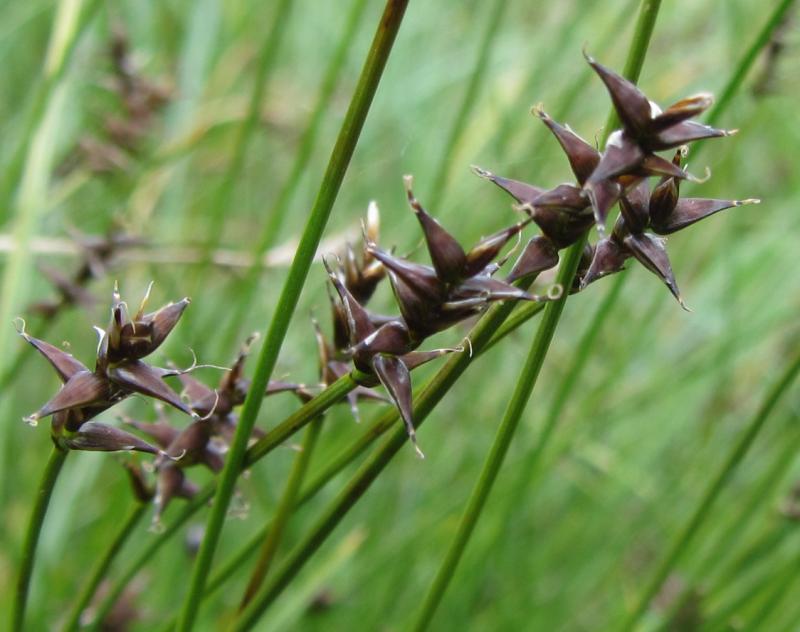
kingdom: Plantae
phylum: Tracheophyta
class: Liliopsida
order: Poales
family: Cyperaceae
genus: Carex
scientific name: Carex davalliana
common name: Davall's sedge
